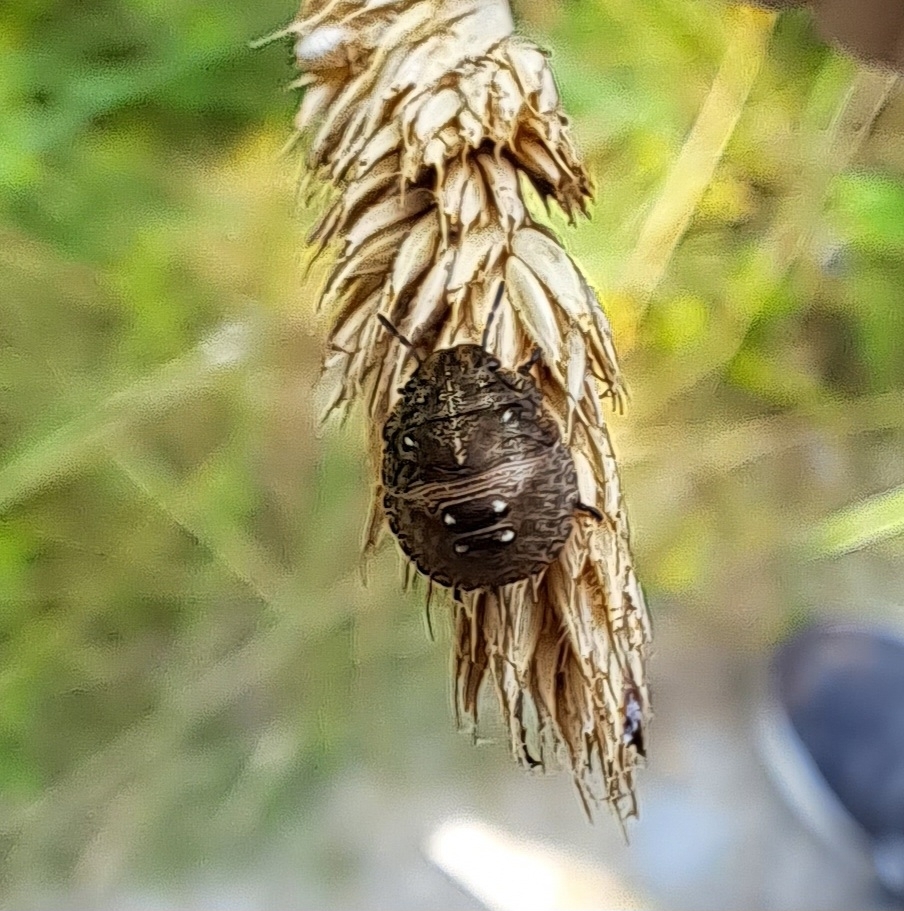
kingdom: Animalia
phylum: Arthropoda
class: Insecta
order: Hemiptera
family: Scutelleridae
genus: Eurygaster
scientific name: Eurygaster testudinaria
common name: Tortoise bug
